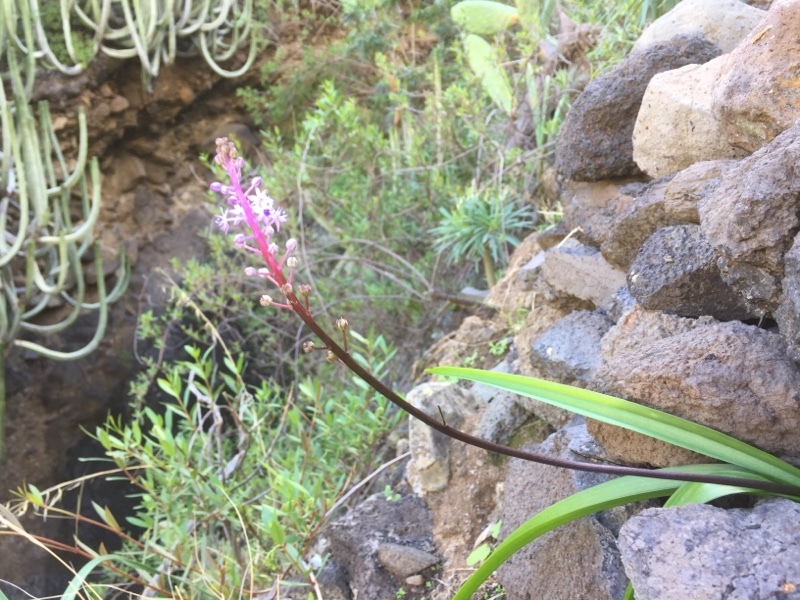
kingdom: Plantae
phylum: Tracheophyta
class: Liliopsida
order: Asparagales
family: Asparagaceae
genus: Scilla
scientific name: Scilla haemorrhoidalis
